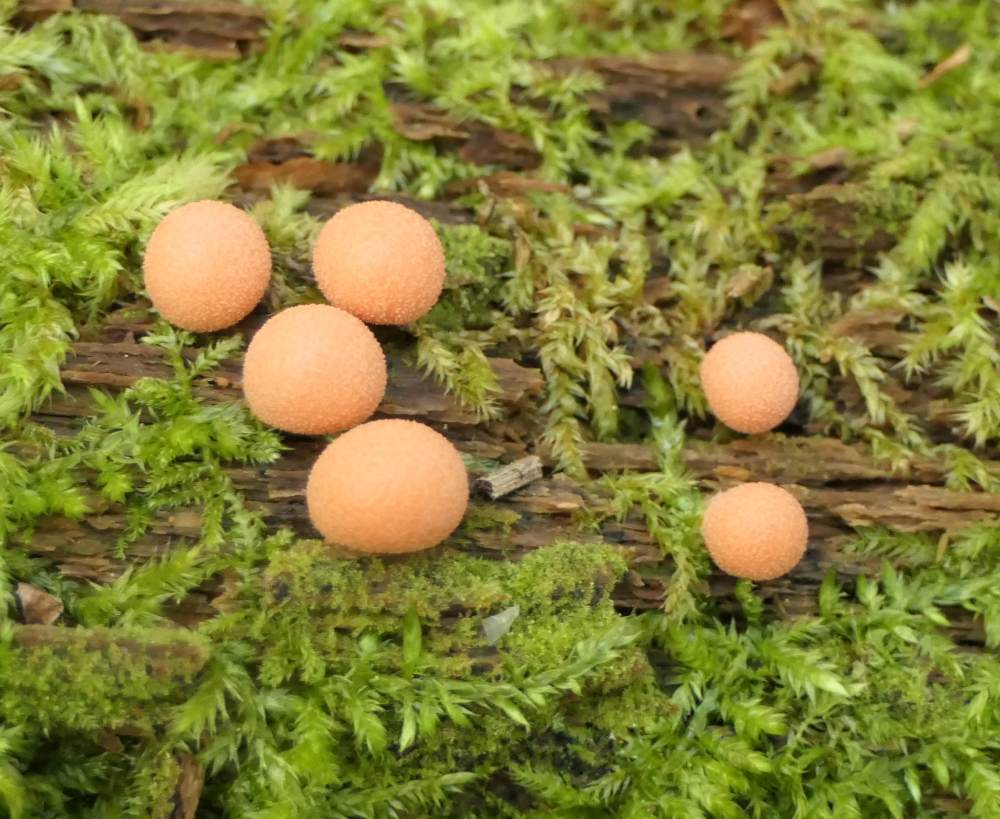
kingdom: Protozoa
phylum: Mycetozoa
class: Myxomycetes
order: Cribrariales
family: Tubiferaceae
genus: Lycogala
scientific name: Lycogala epidendrum
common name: Wolf's milk
